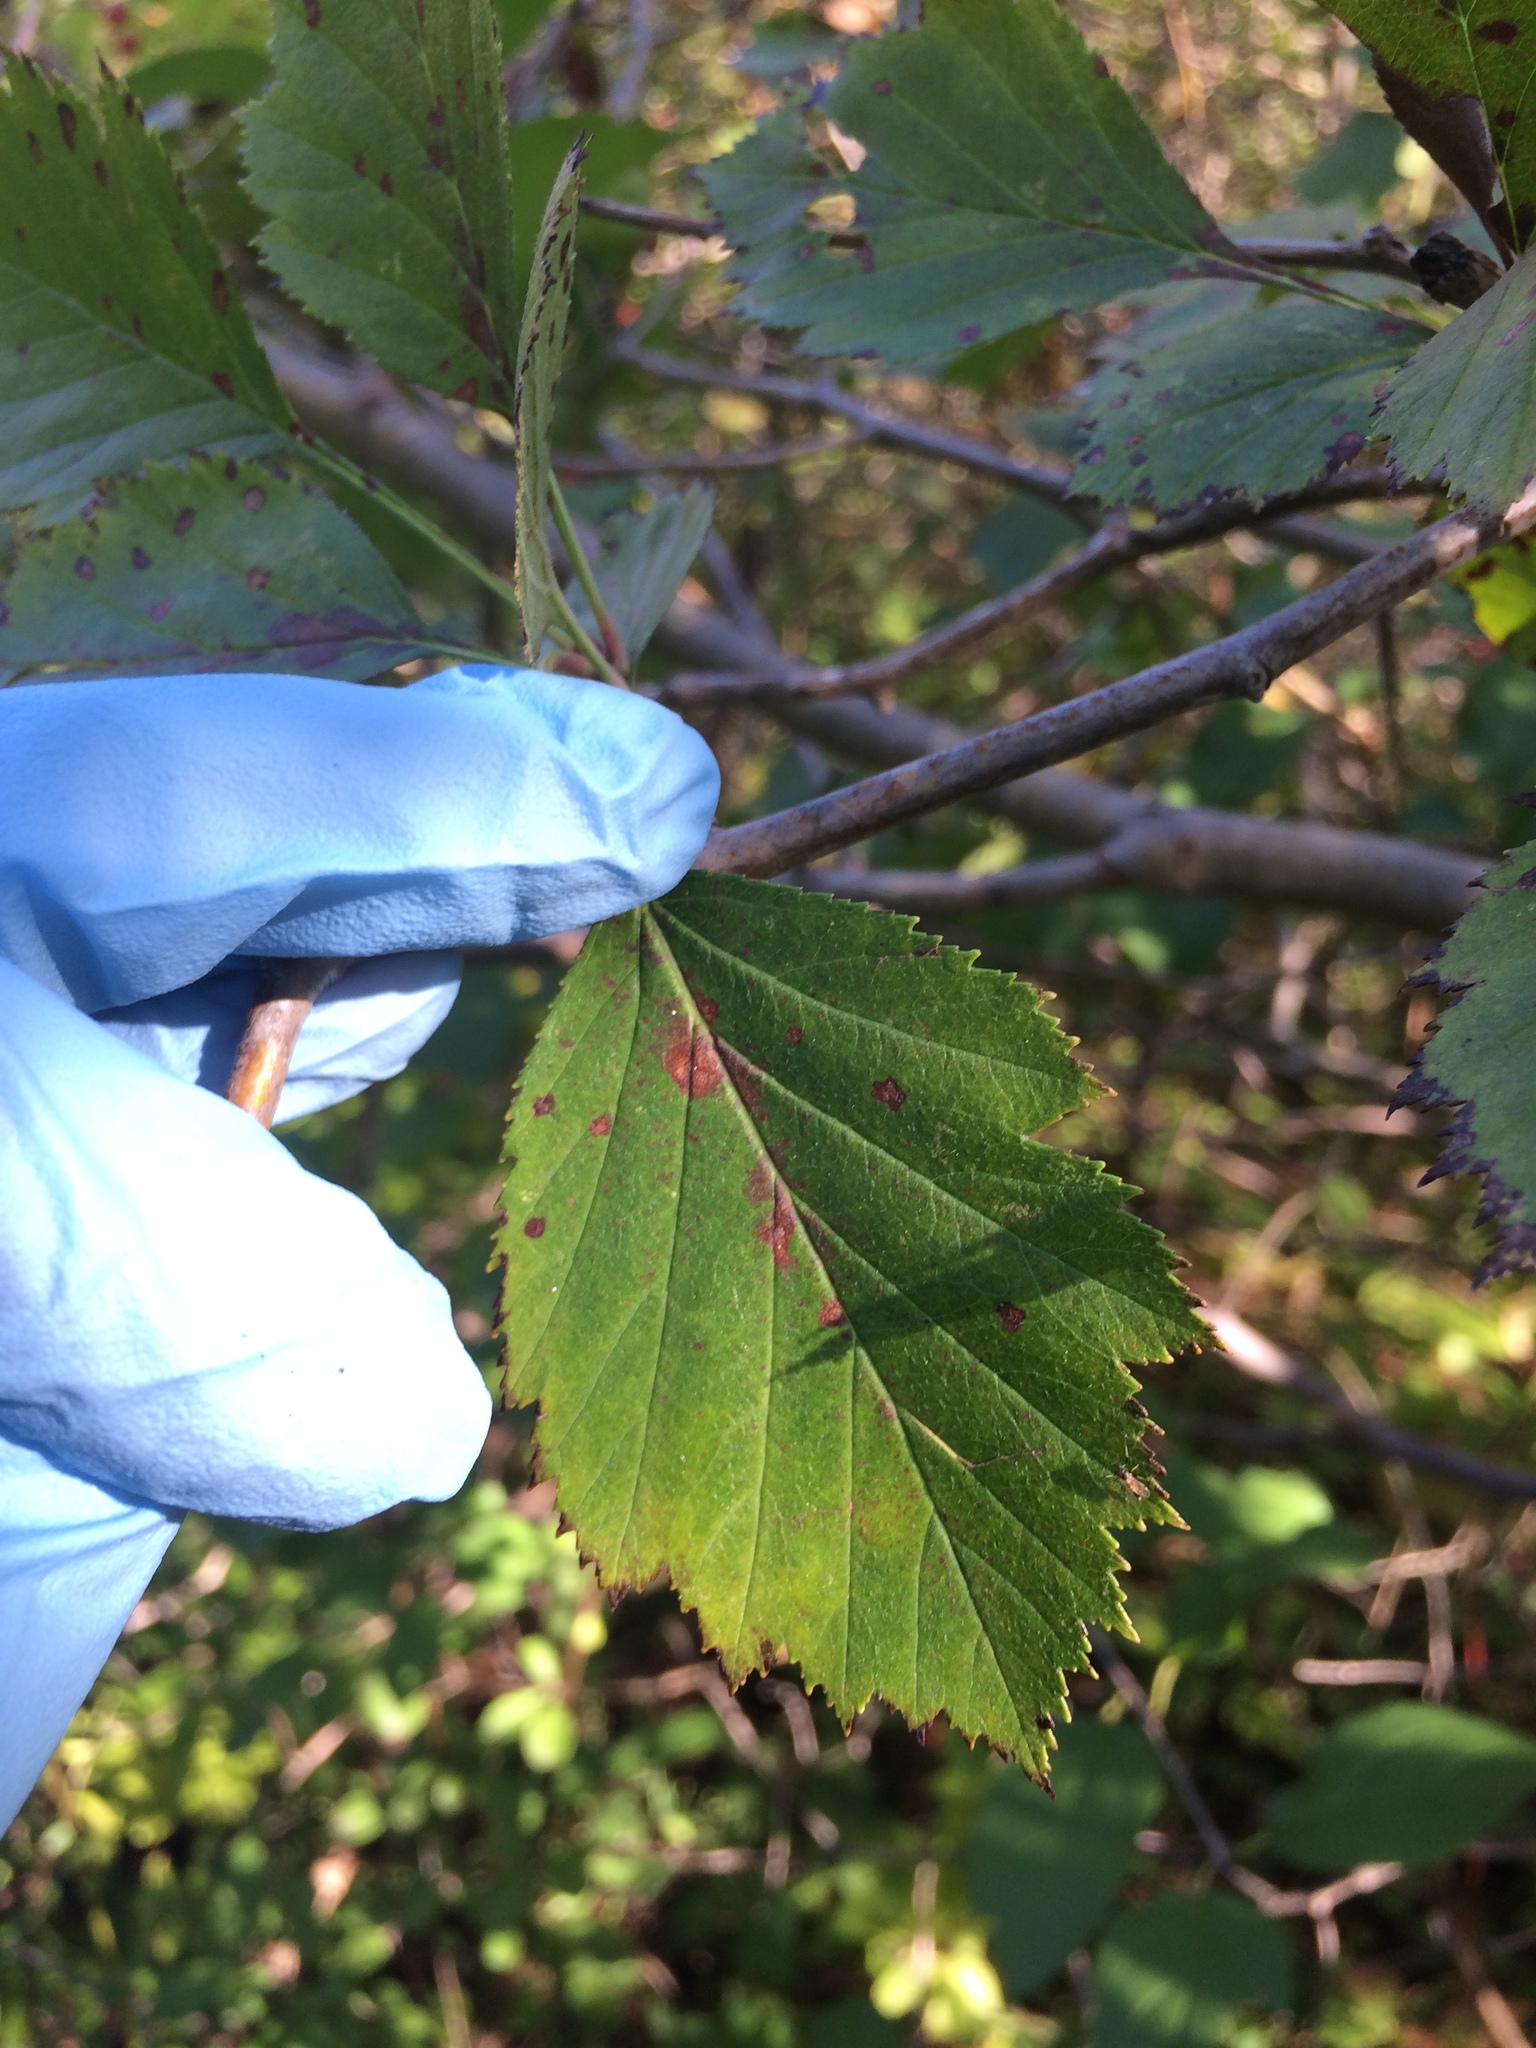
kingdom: Plantae
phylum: Tracheophyta
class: Magnoliopsida
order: Rosales
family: Rosaceae
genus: Crataegus
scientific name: Crataegus chrysocarpa
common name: Fire-berry hawthorn
